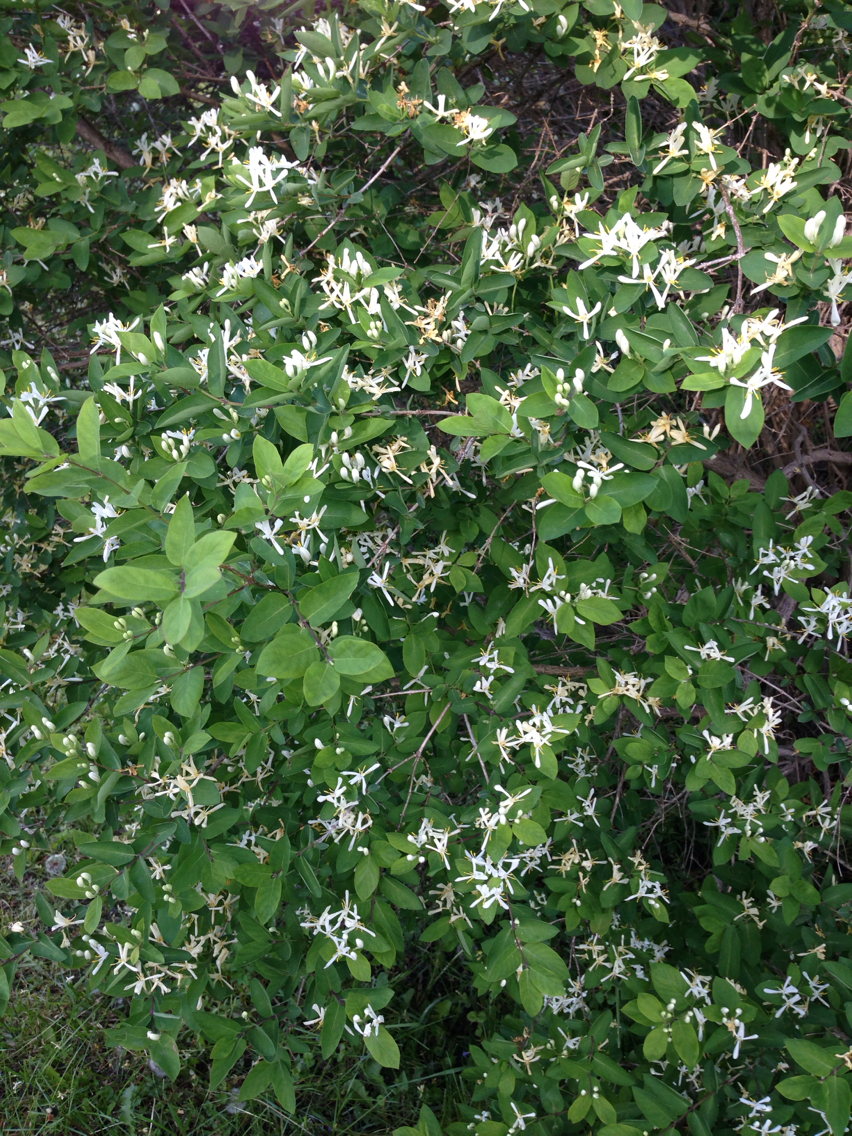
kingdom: Plantae
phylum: Tracheophyta
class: Magnoliopsida
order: Dipsacales
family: Caprifoliaceae
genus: Lonicera
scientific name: Lonicera morrowii
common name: Morrow's honeysuckle
